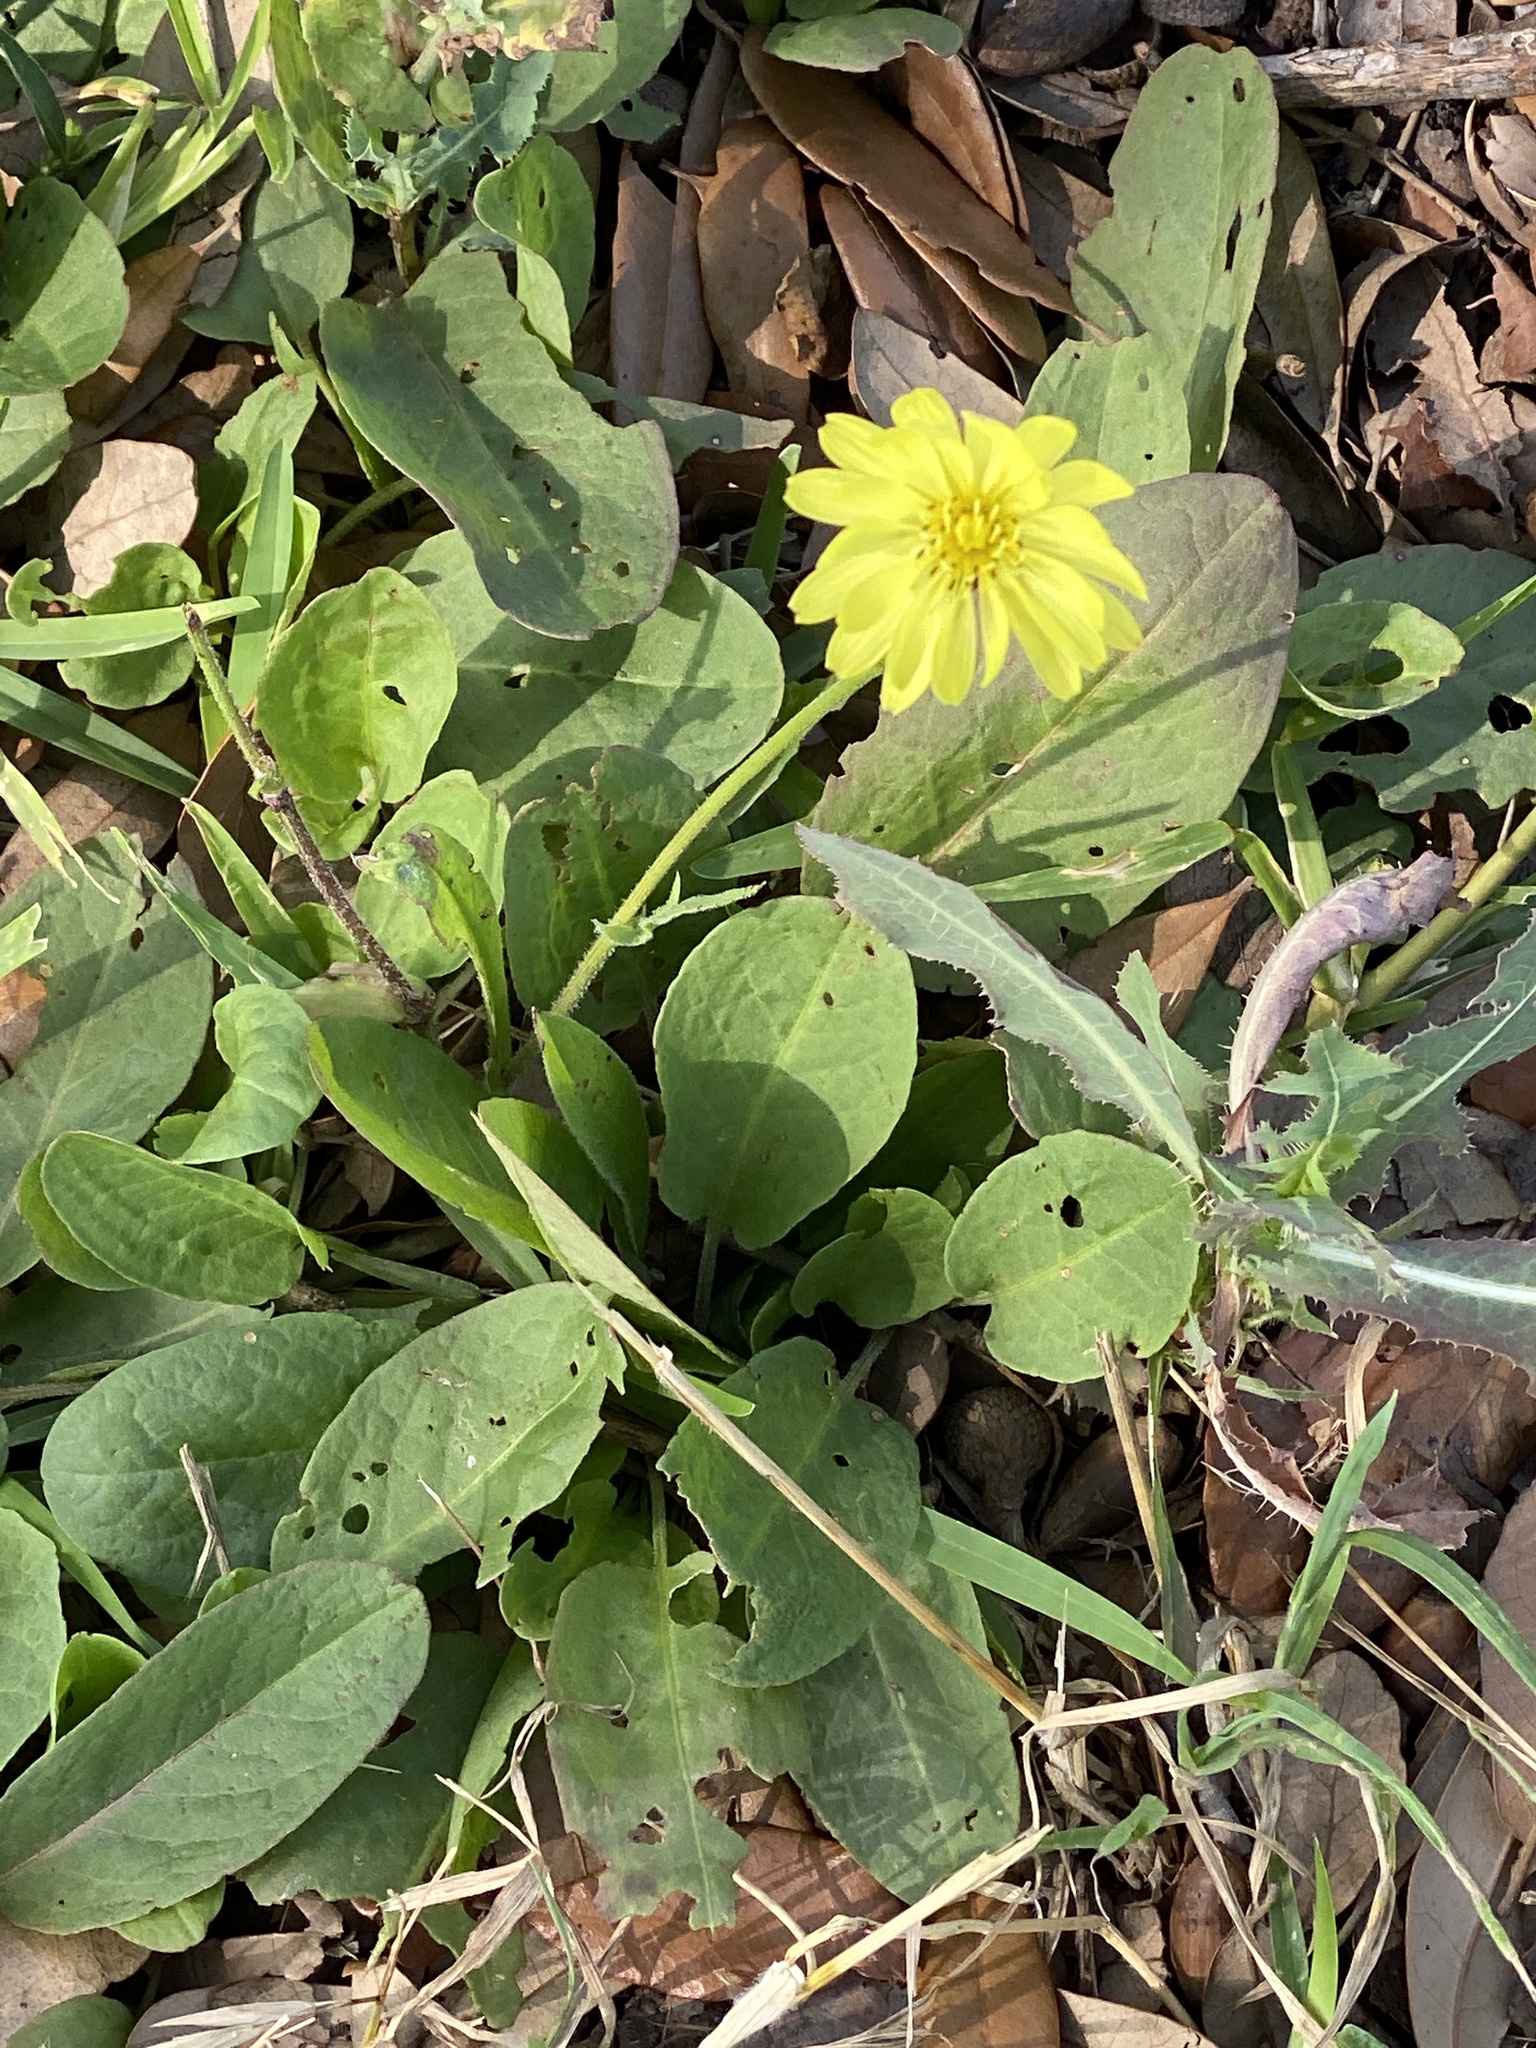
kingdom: Plantae
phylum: Tracheophyta
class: Magnoliopsida
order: Asterales
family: Asteraceae
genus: Pyrrhopappus
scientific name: Pyrrhopappus pauciflorus
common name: Texas false dandelion
